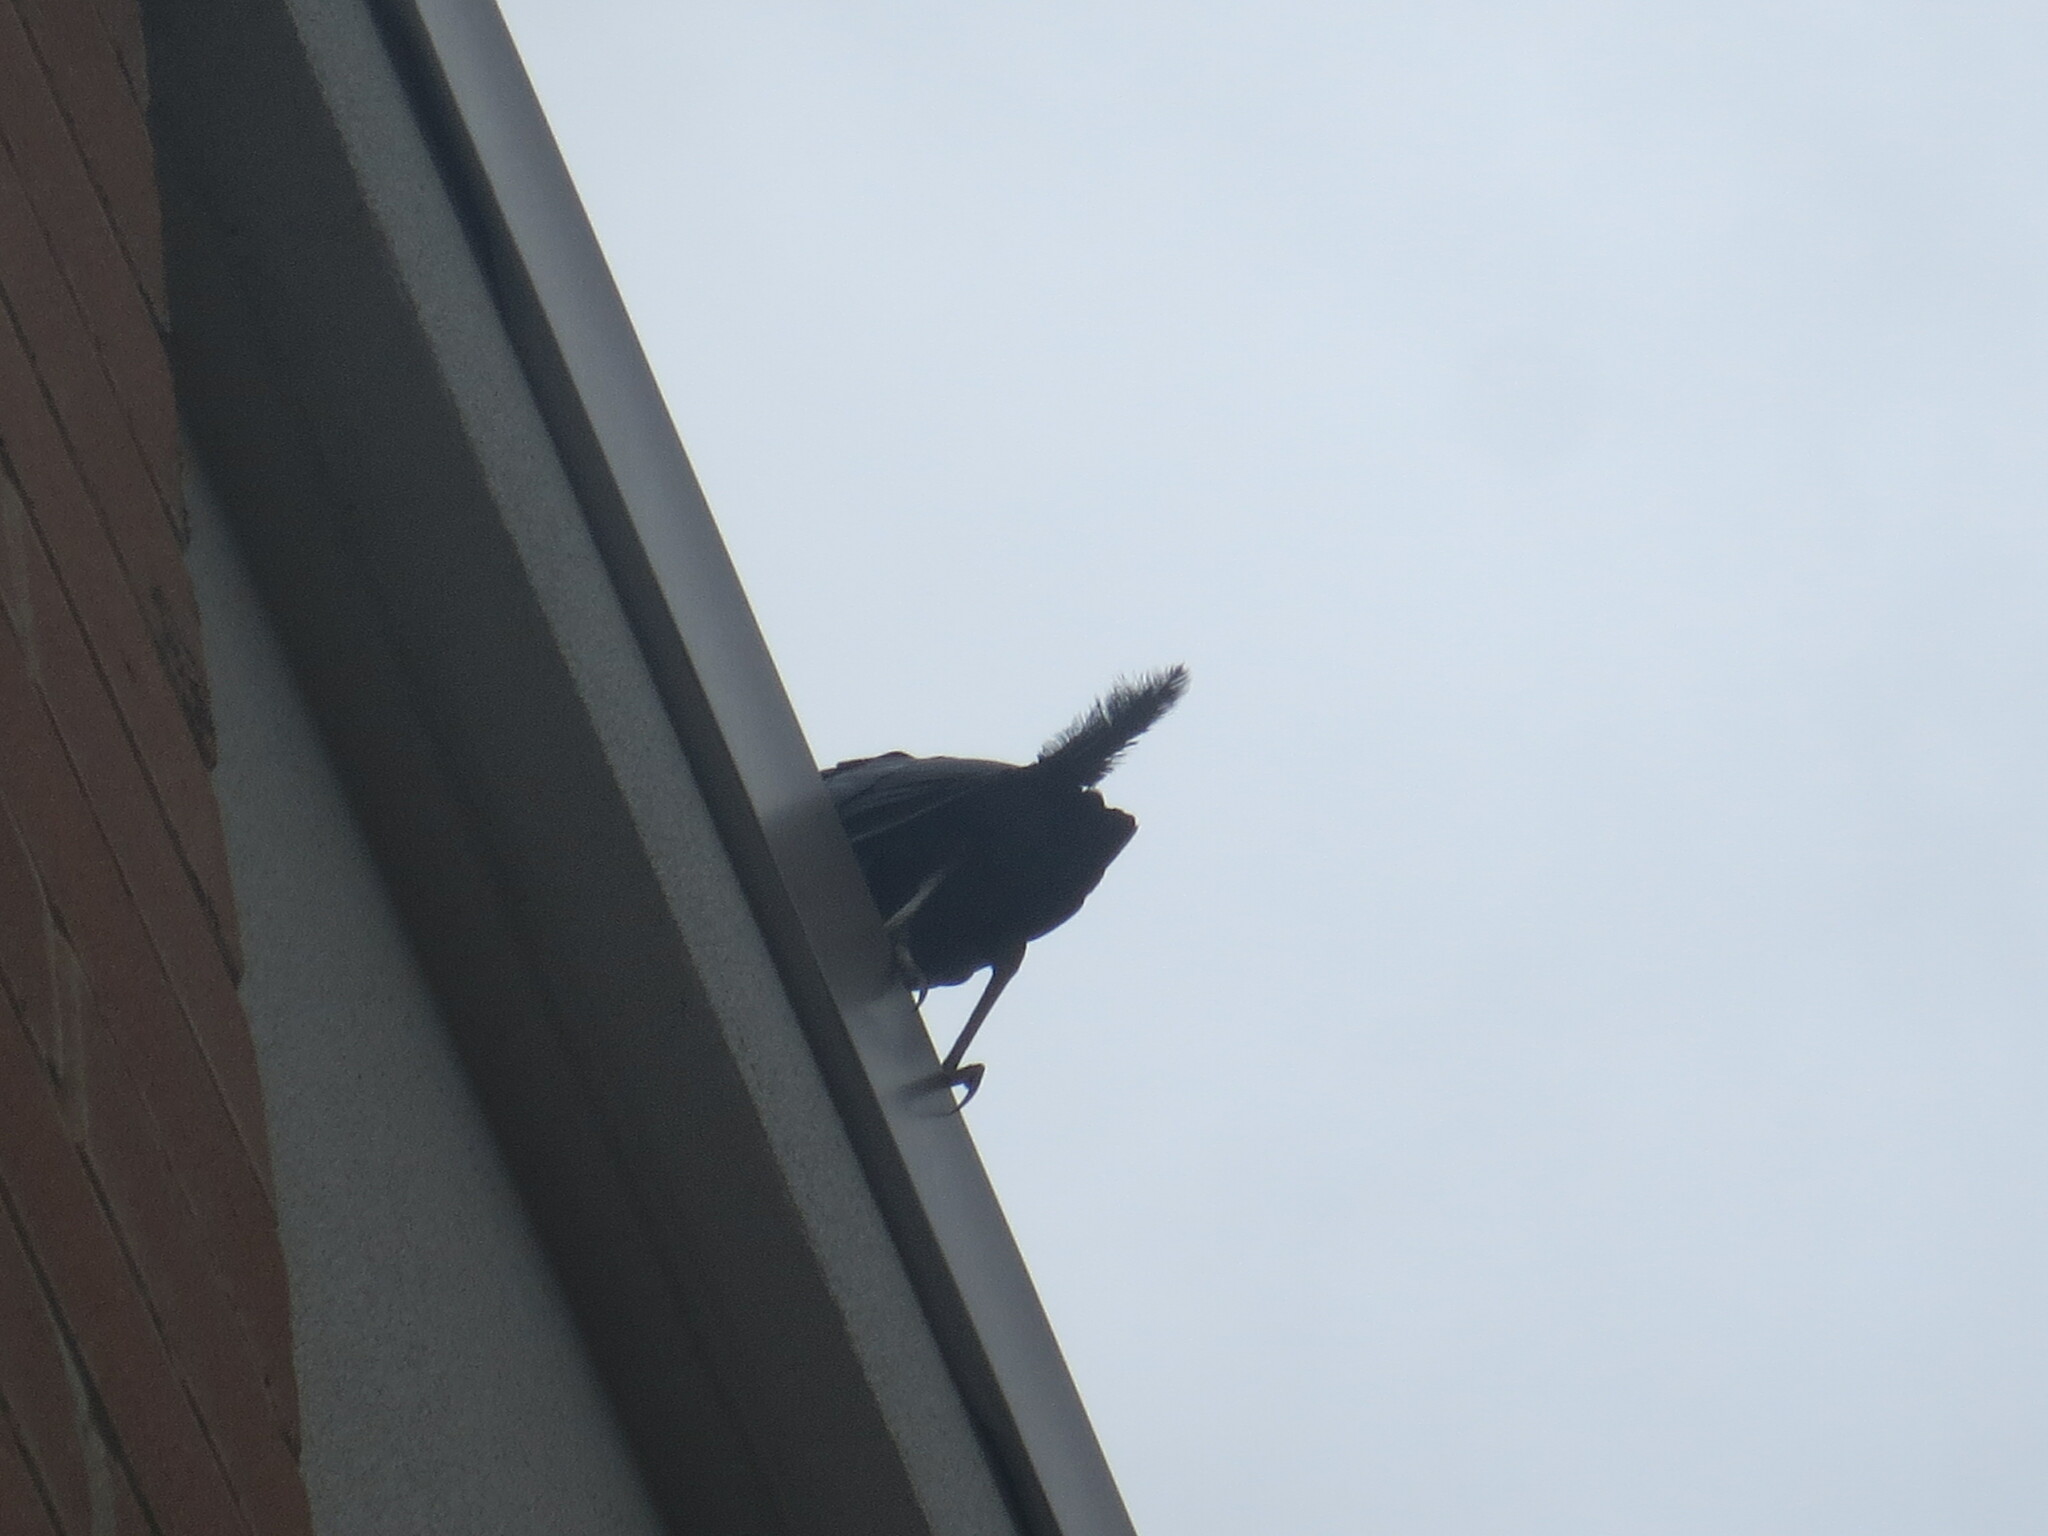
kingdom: Animalia
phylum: Chordata
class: Aves
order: Passeriformes
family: Icteridae
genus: Quiscalus
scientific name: Quiscalus major
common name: Boat-tailed grackle
